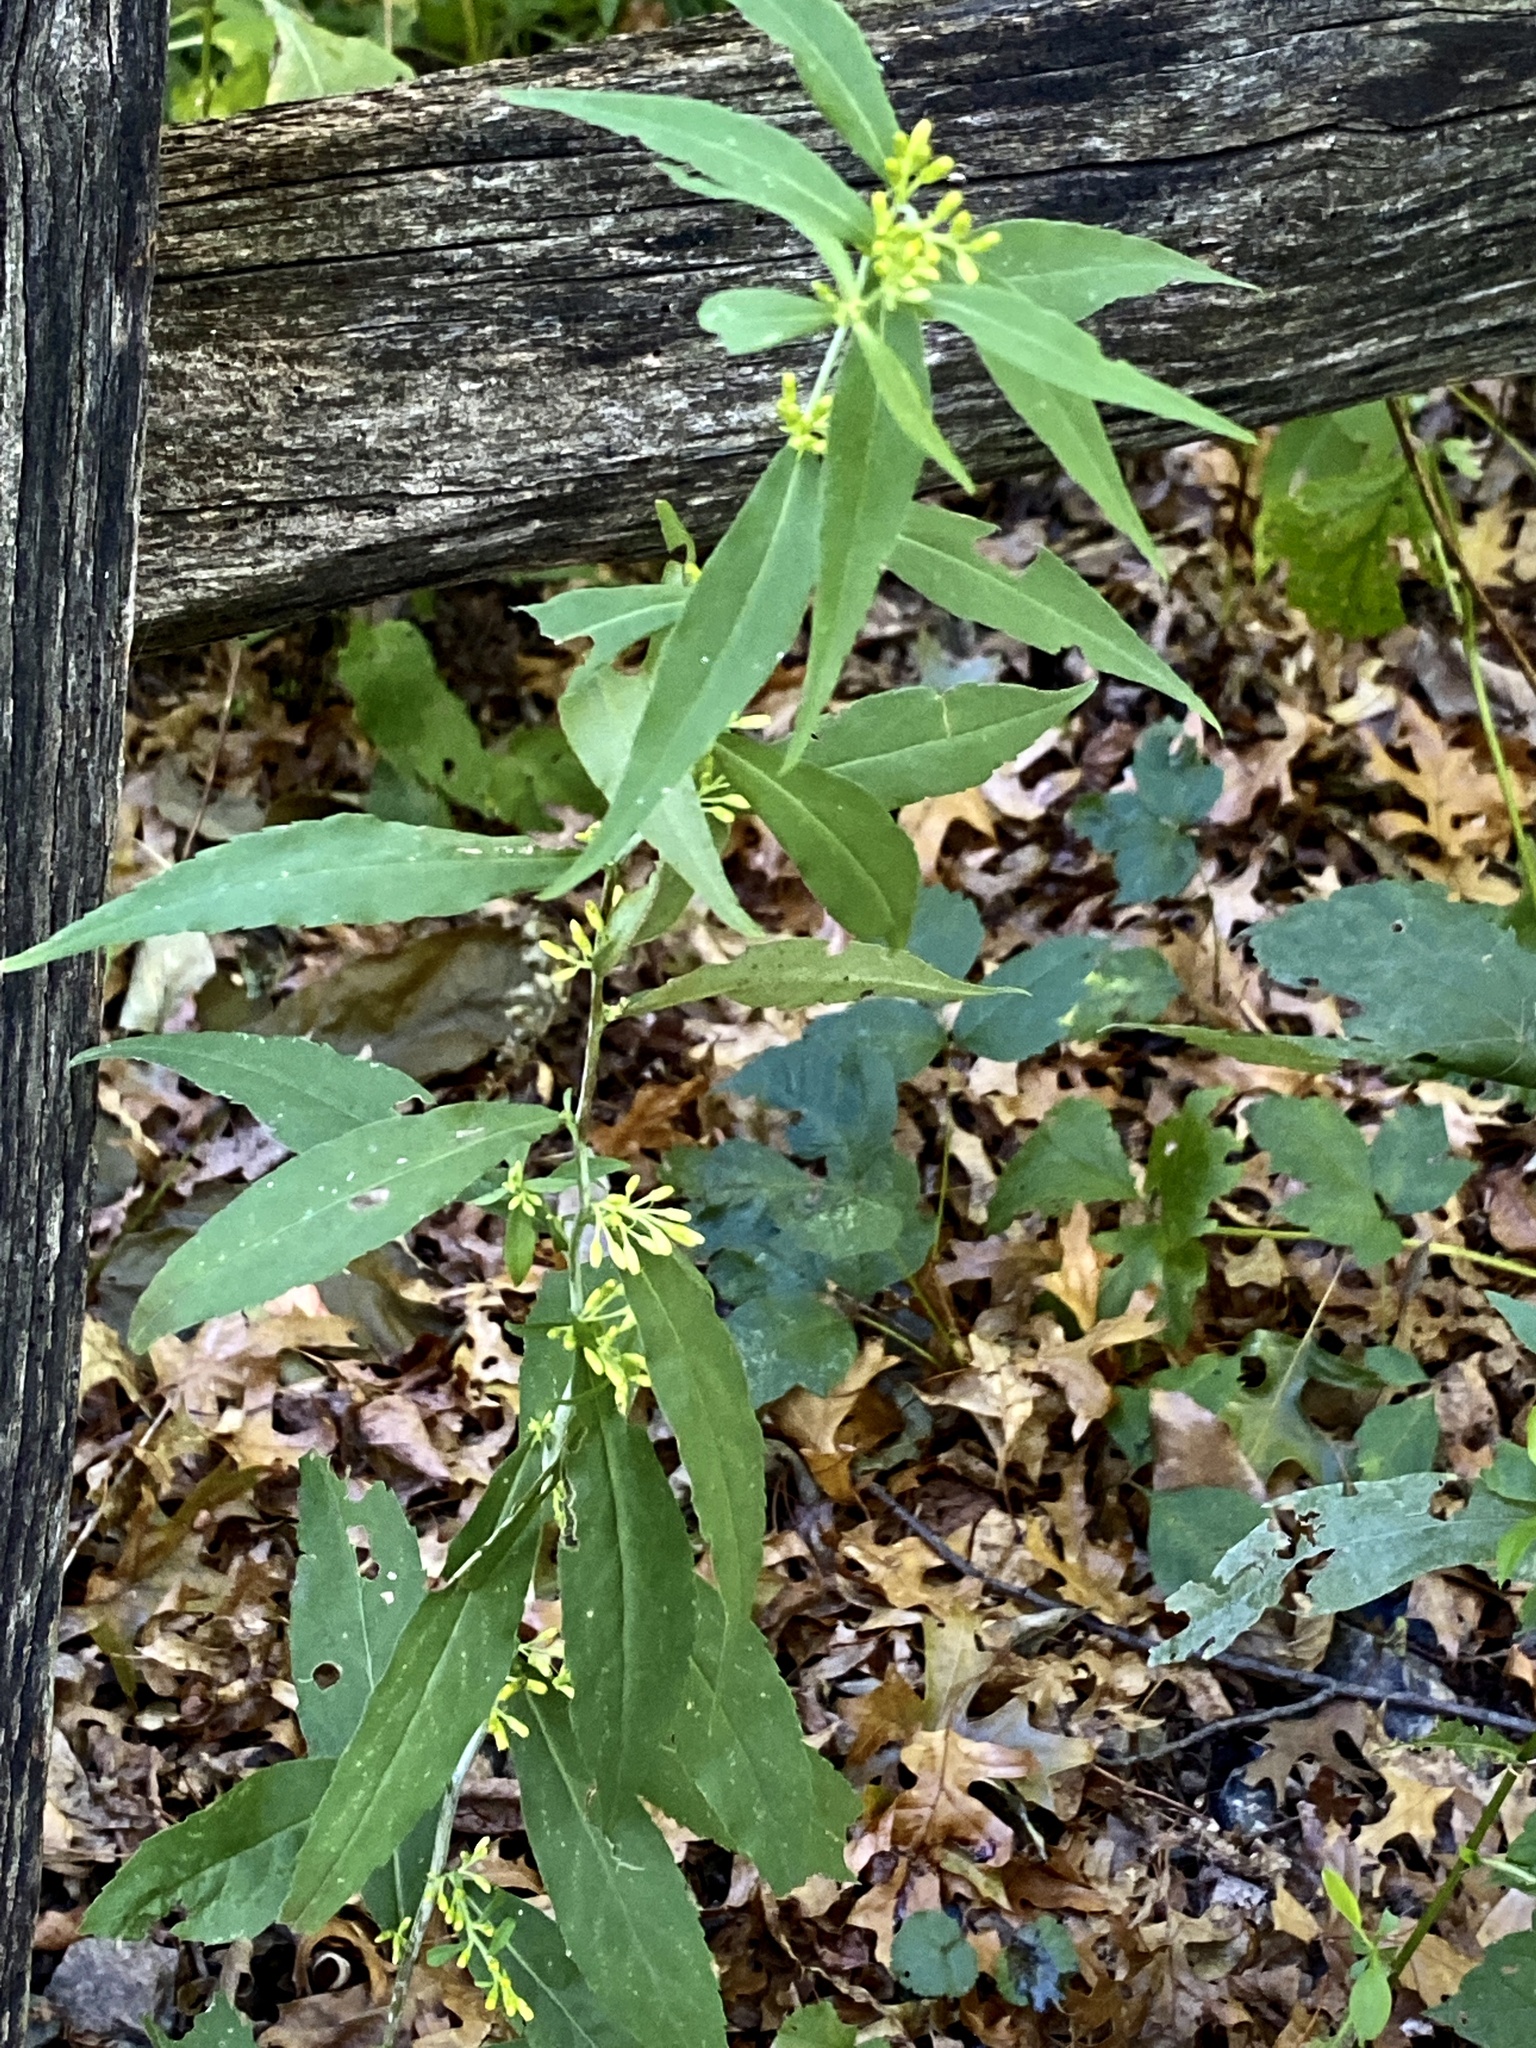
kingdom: Plantae
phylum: Tracheophyta
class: Magnoliopsida
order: Asterales
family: Asteraceae
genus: Solidago
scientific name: Solidago caesia
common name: Woodland goldenrod
